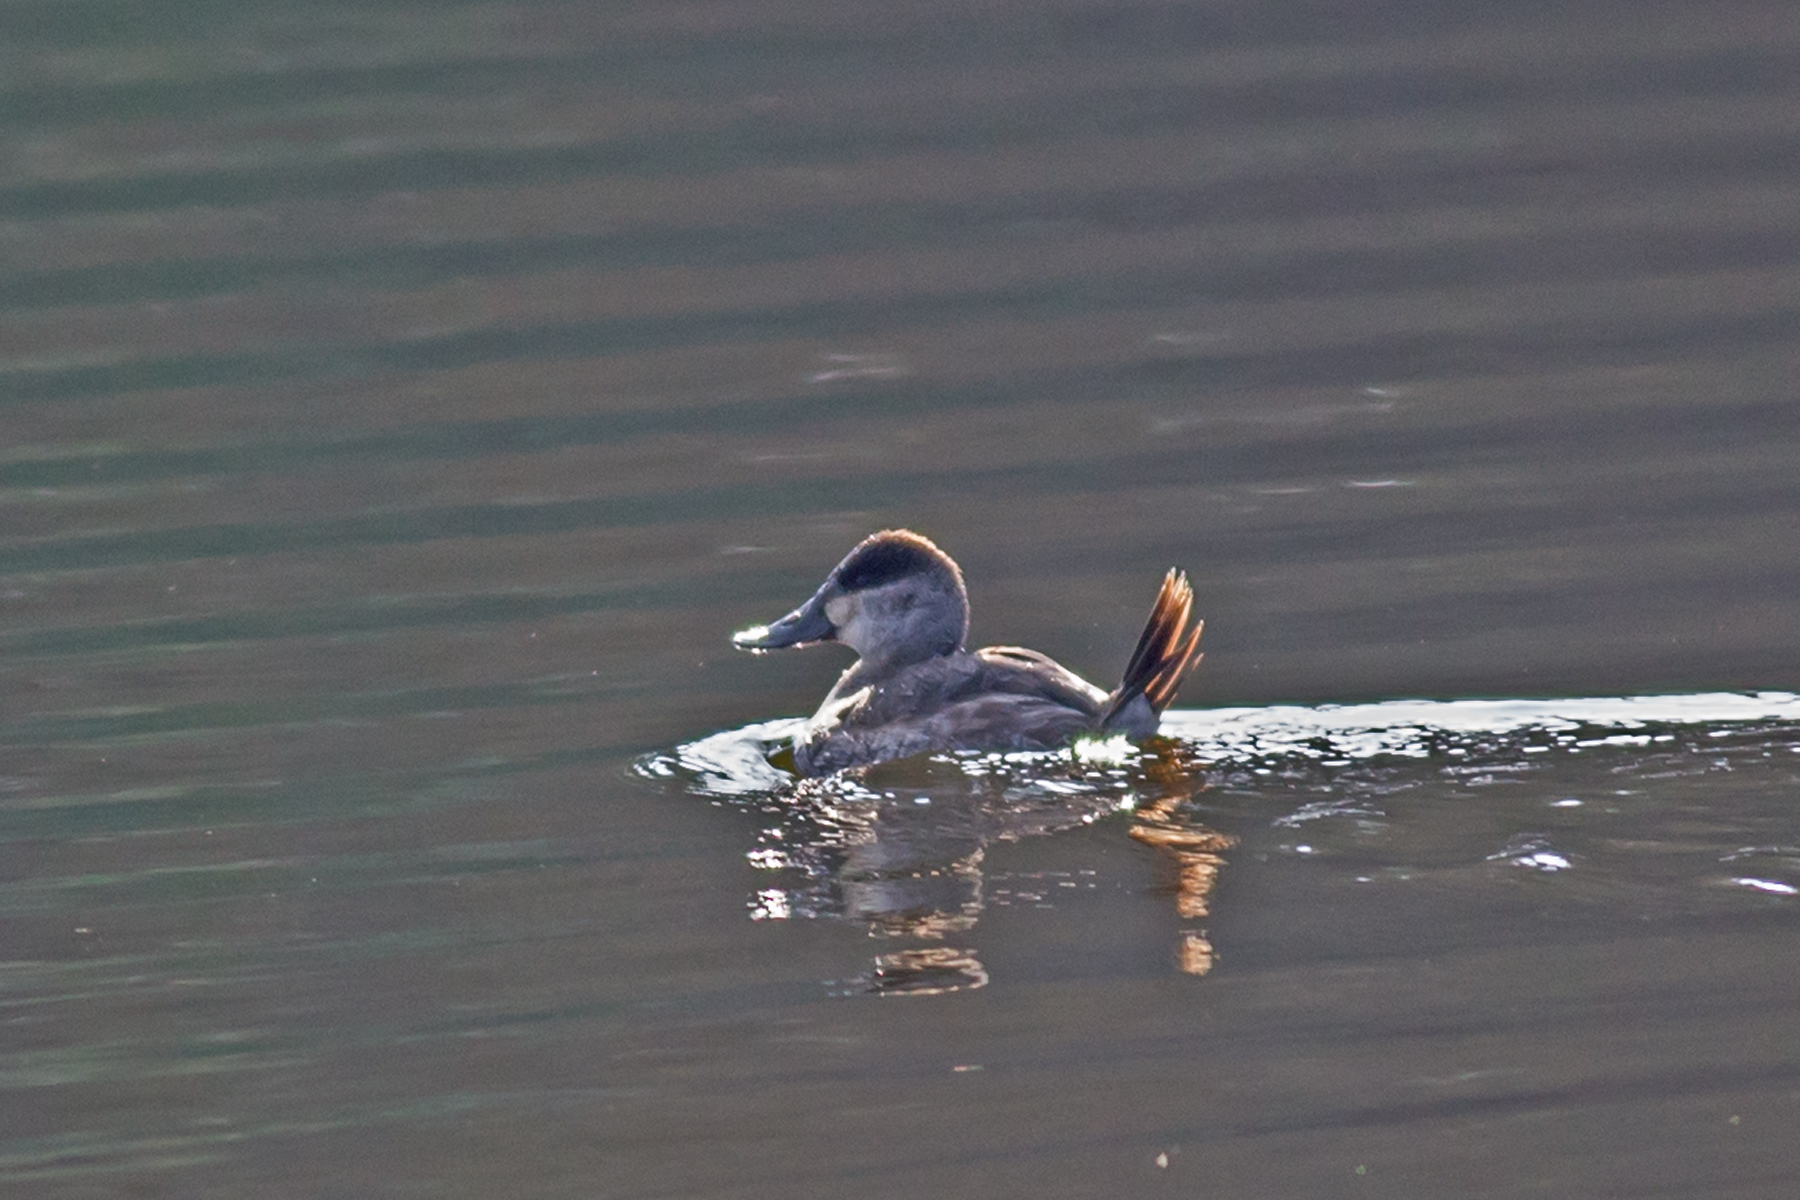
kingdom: Animalia
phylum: Chordata
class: Aves
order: Anseriformes
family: Anatidae
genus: Oxyura
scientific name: Oxyura jamaicensis
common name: Ruddy duck
